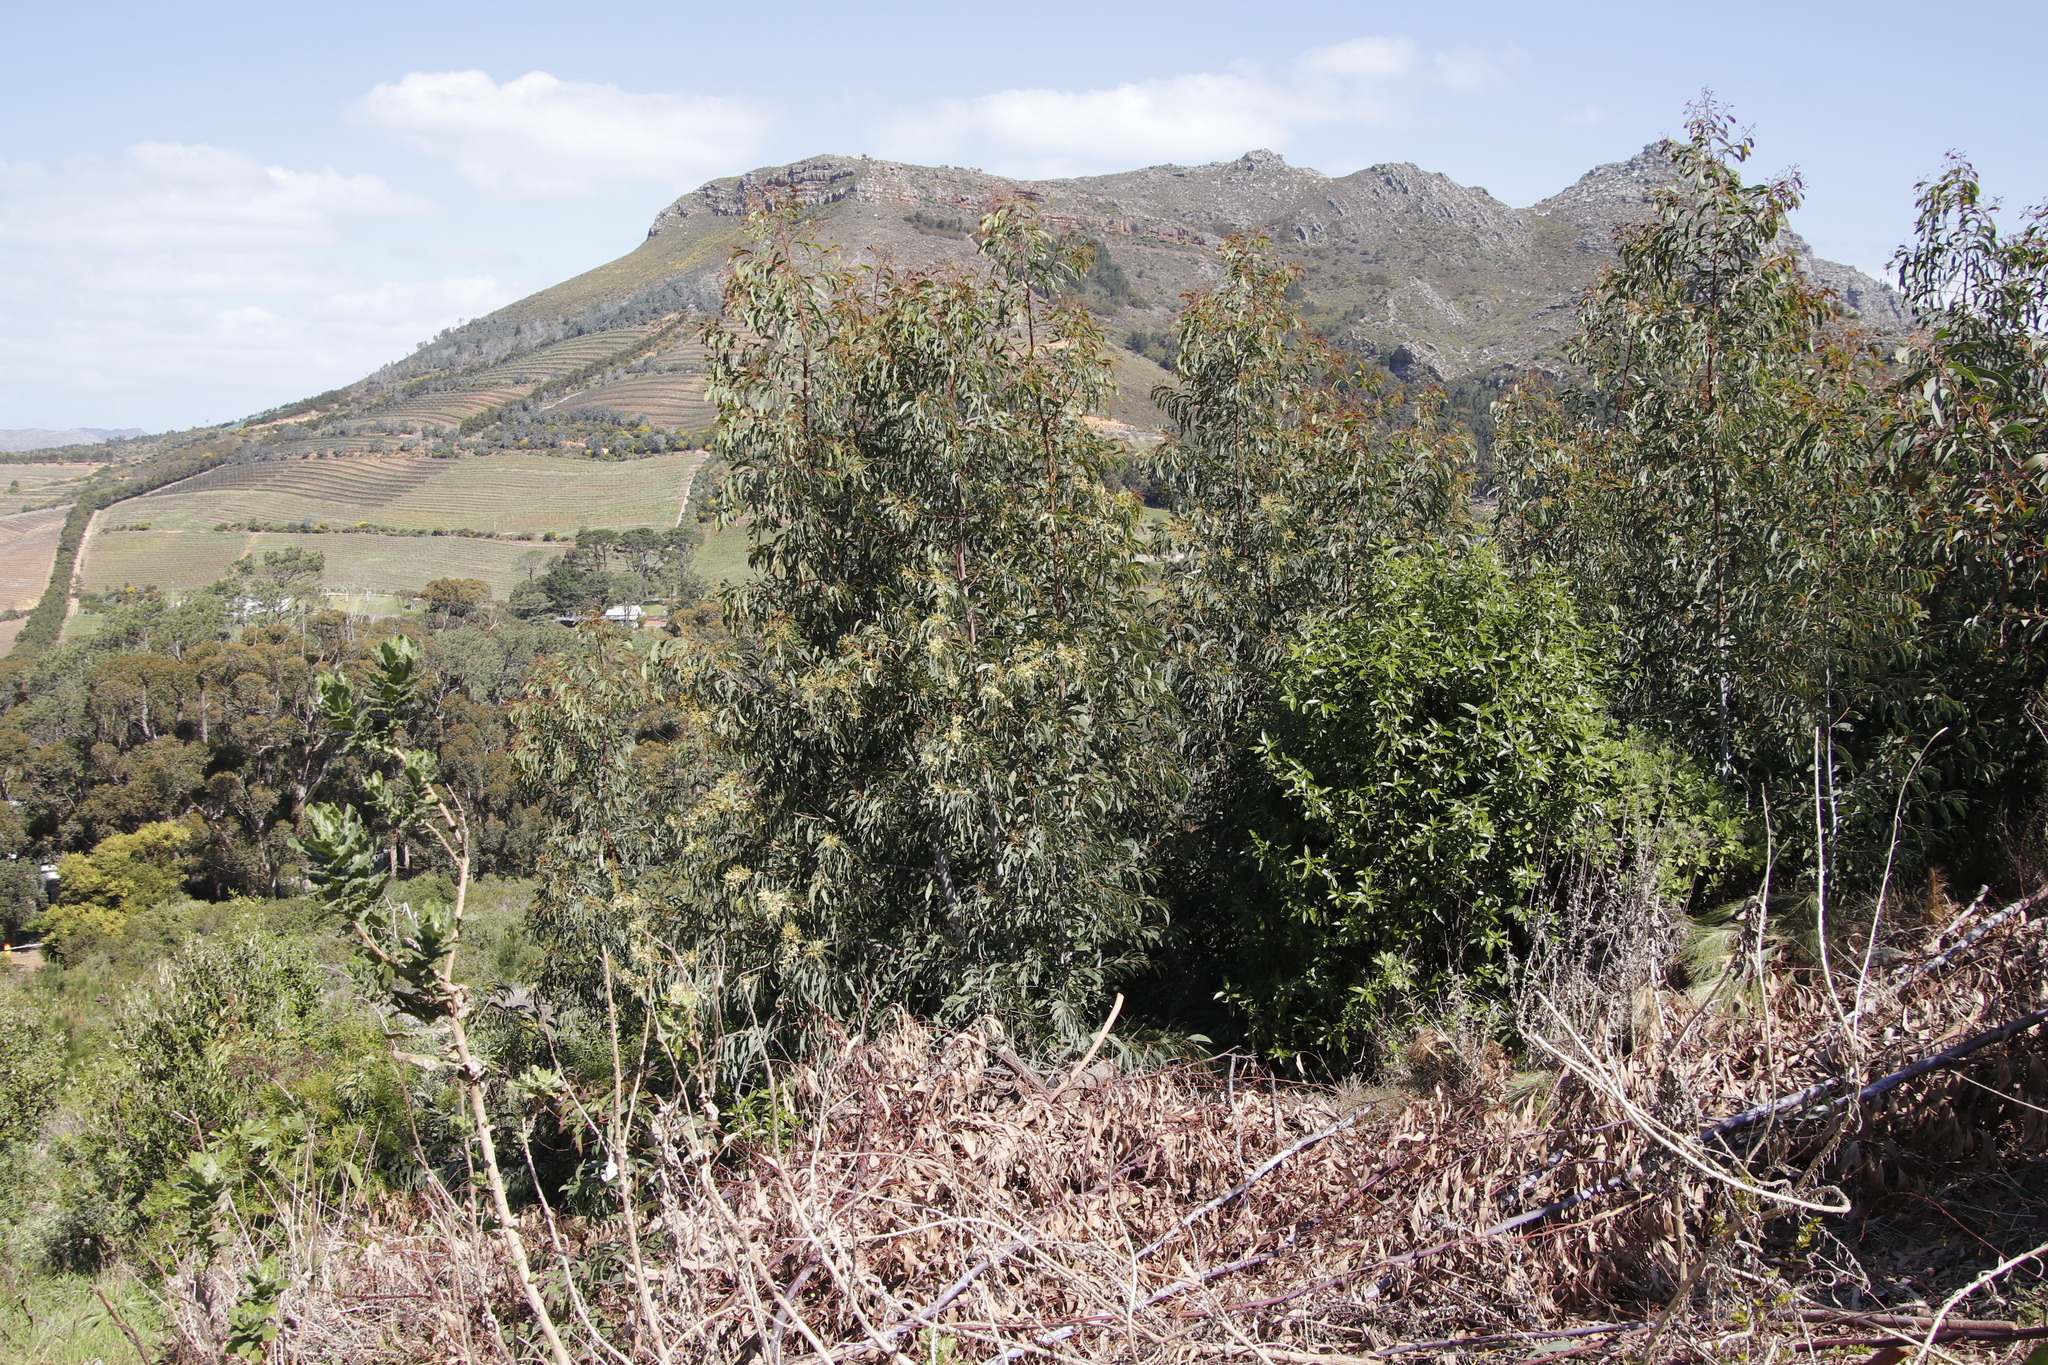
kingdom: Plantae
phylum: Tracheophyta
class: Magnoliopsida
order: Fabales
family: Fabaceae
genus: Acacia
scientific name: Acacia falciformis
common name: Tanning wattle
